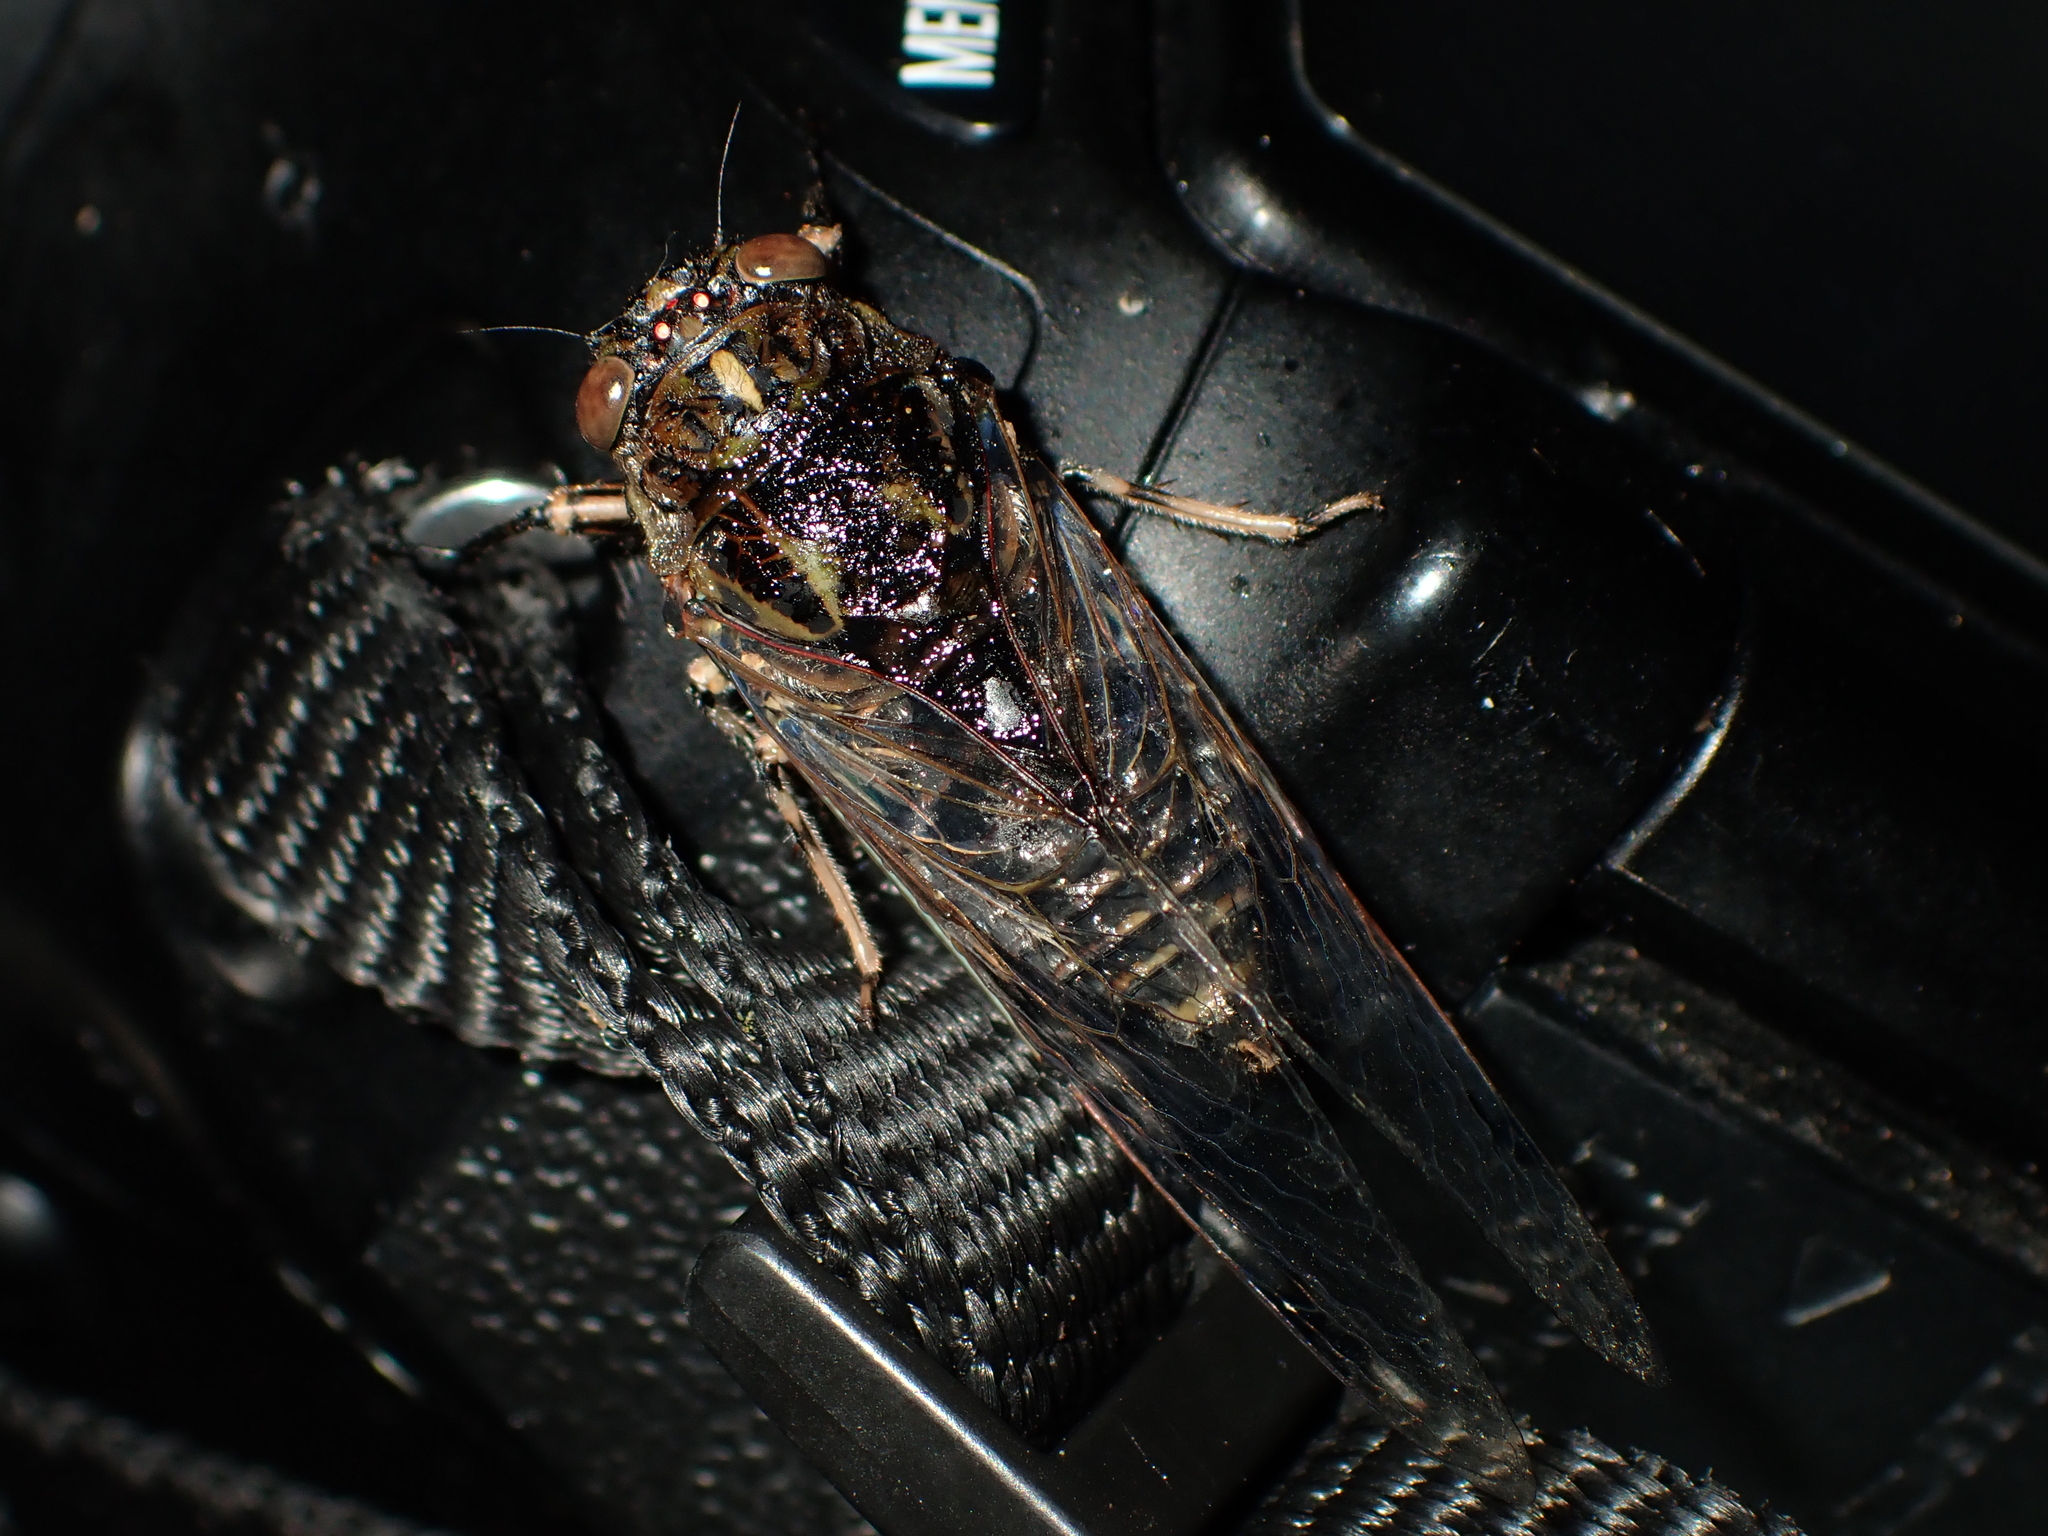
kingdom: Animalia
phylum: Arthropoda
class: Insecta
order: Hemiptera
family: Cicadidae
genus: Amphipsalta
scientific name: Amphipsalta cingulata
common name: Clapping cicada
